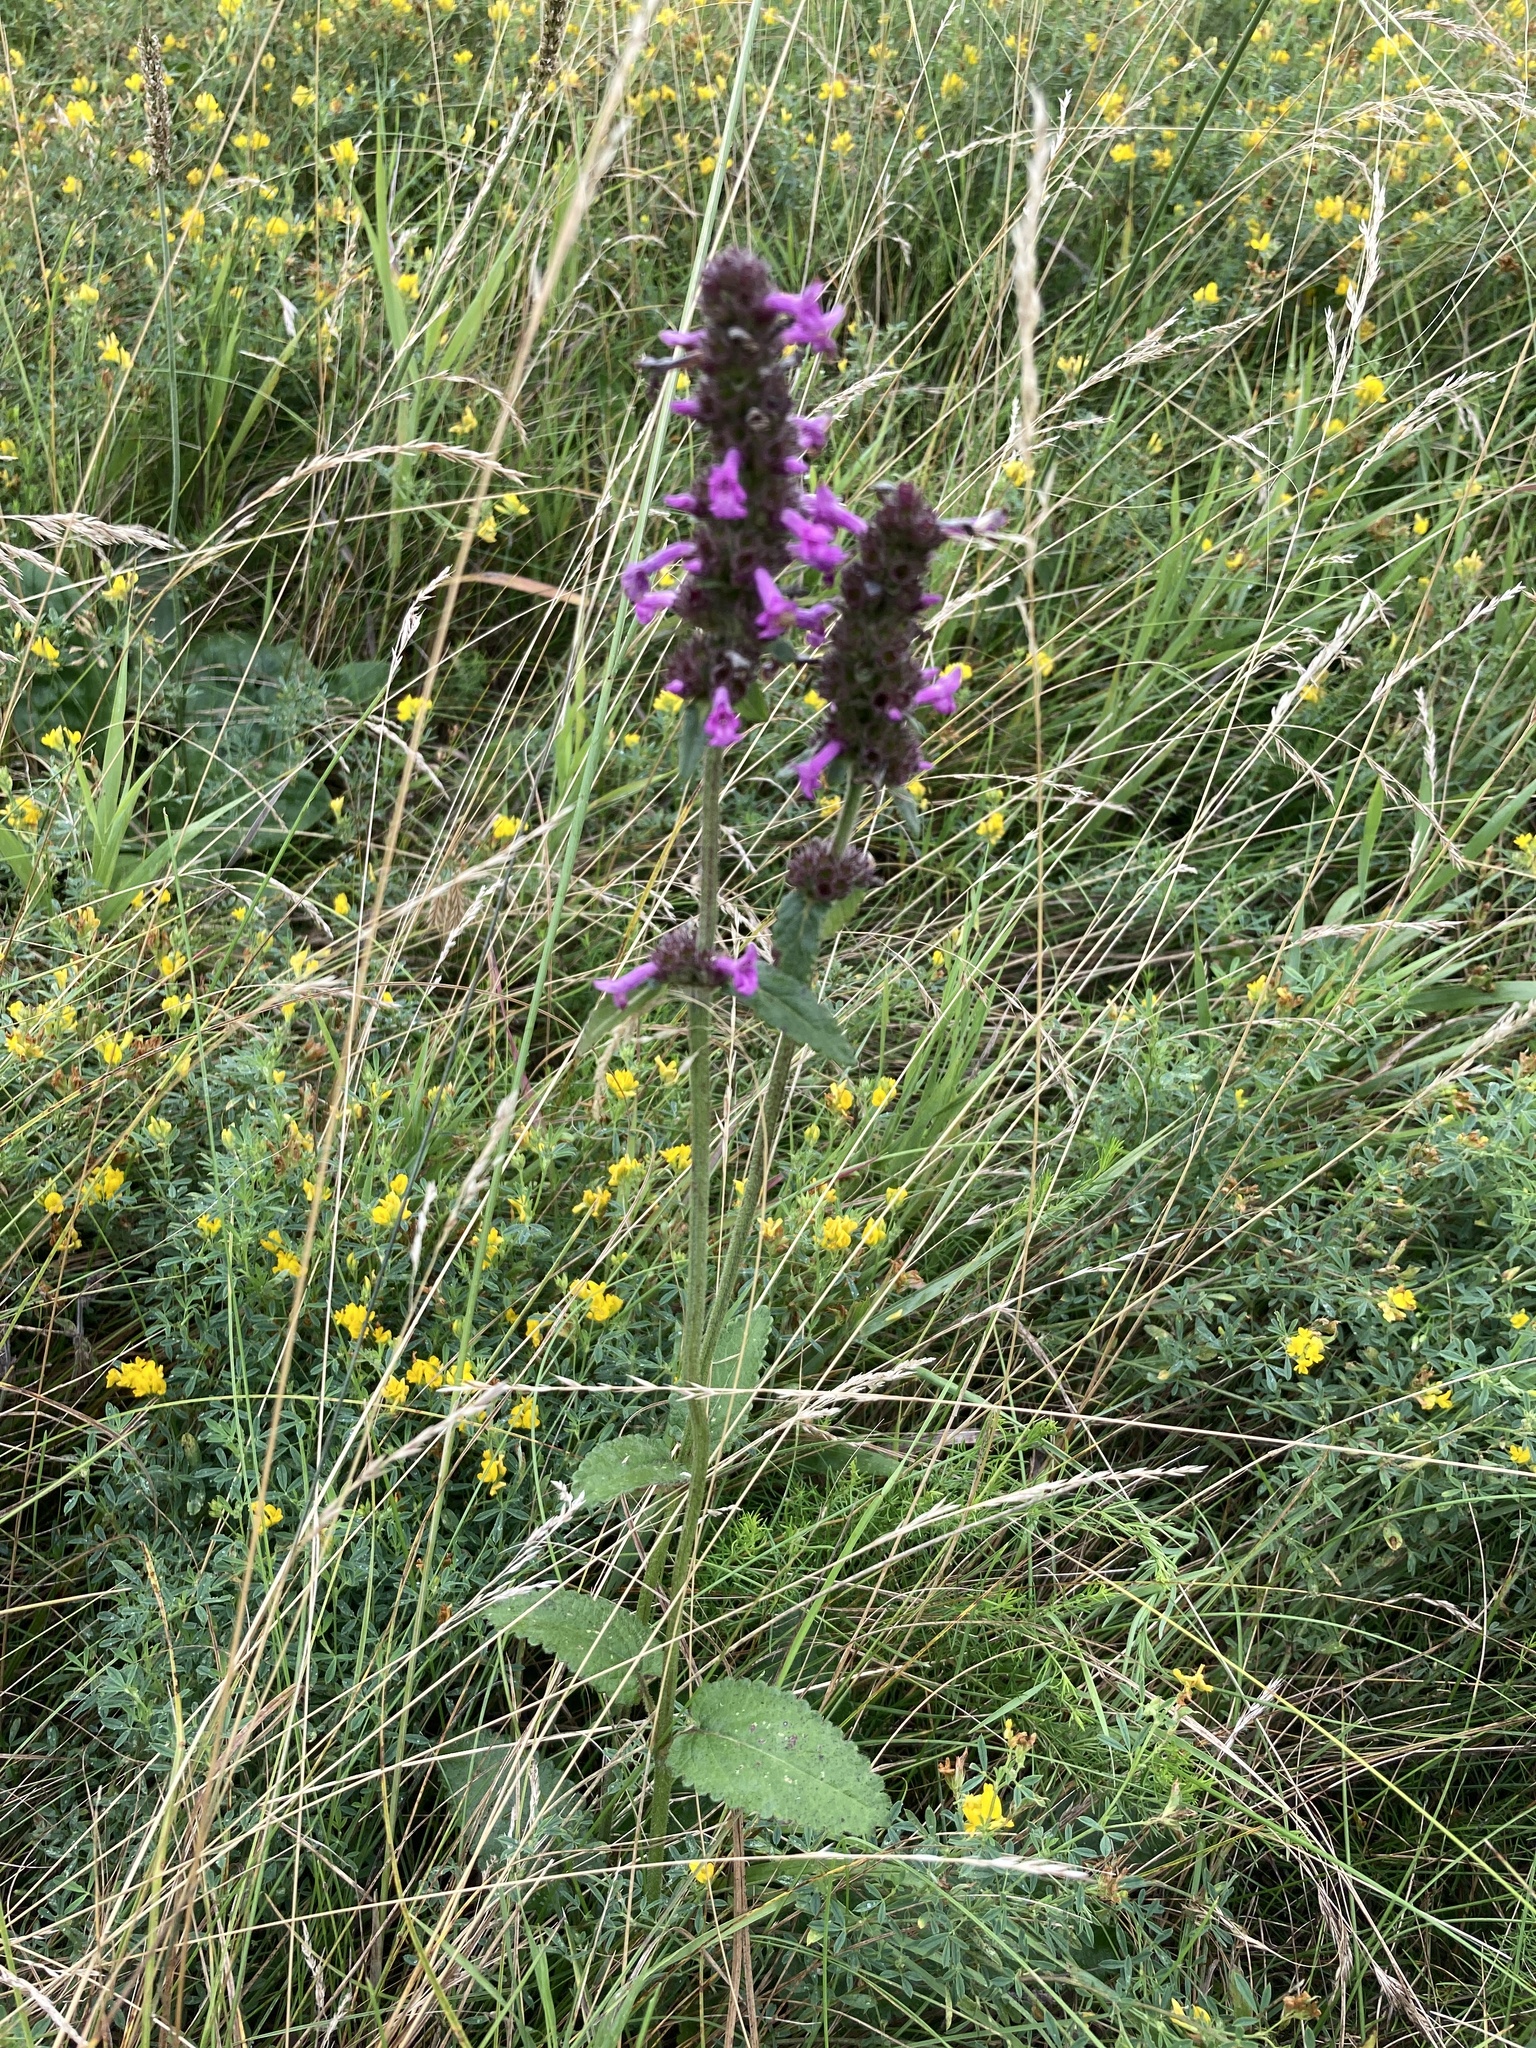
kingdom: Plantae
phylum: Tracheophyta
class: Magnoliopsida
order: Lamiales
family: Lamiaceae
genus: Betonica
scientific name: Betonica officinalis
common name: Bishop's-wort
